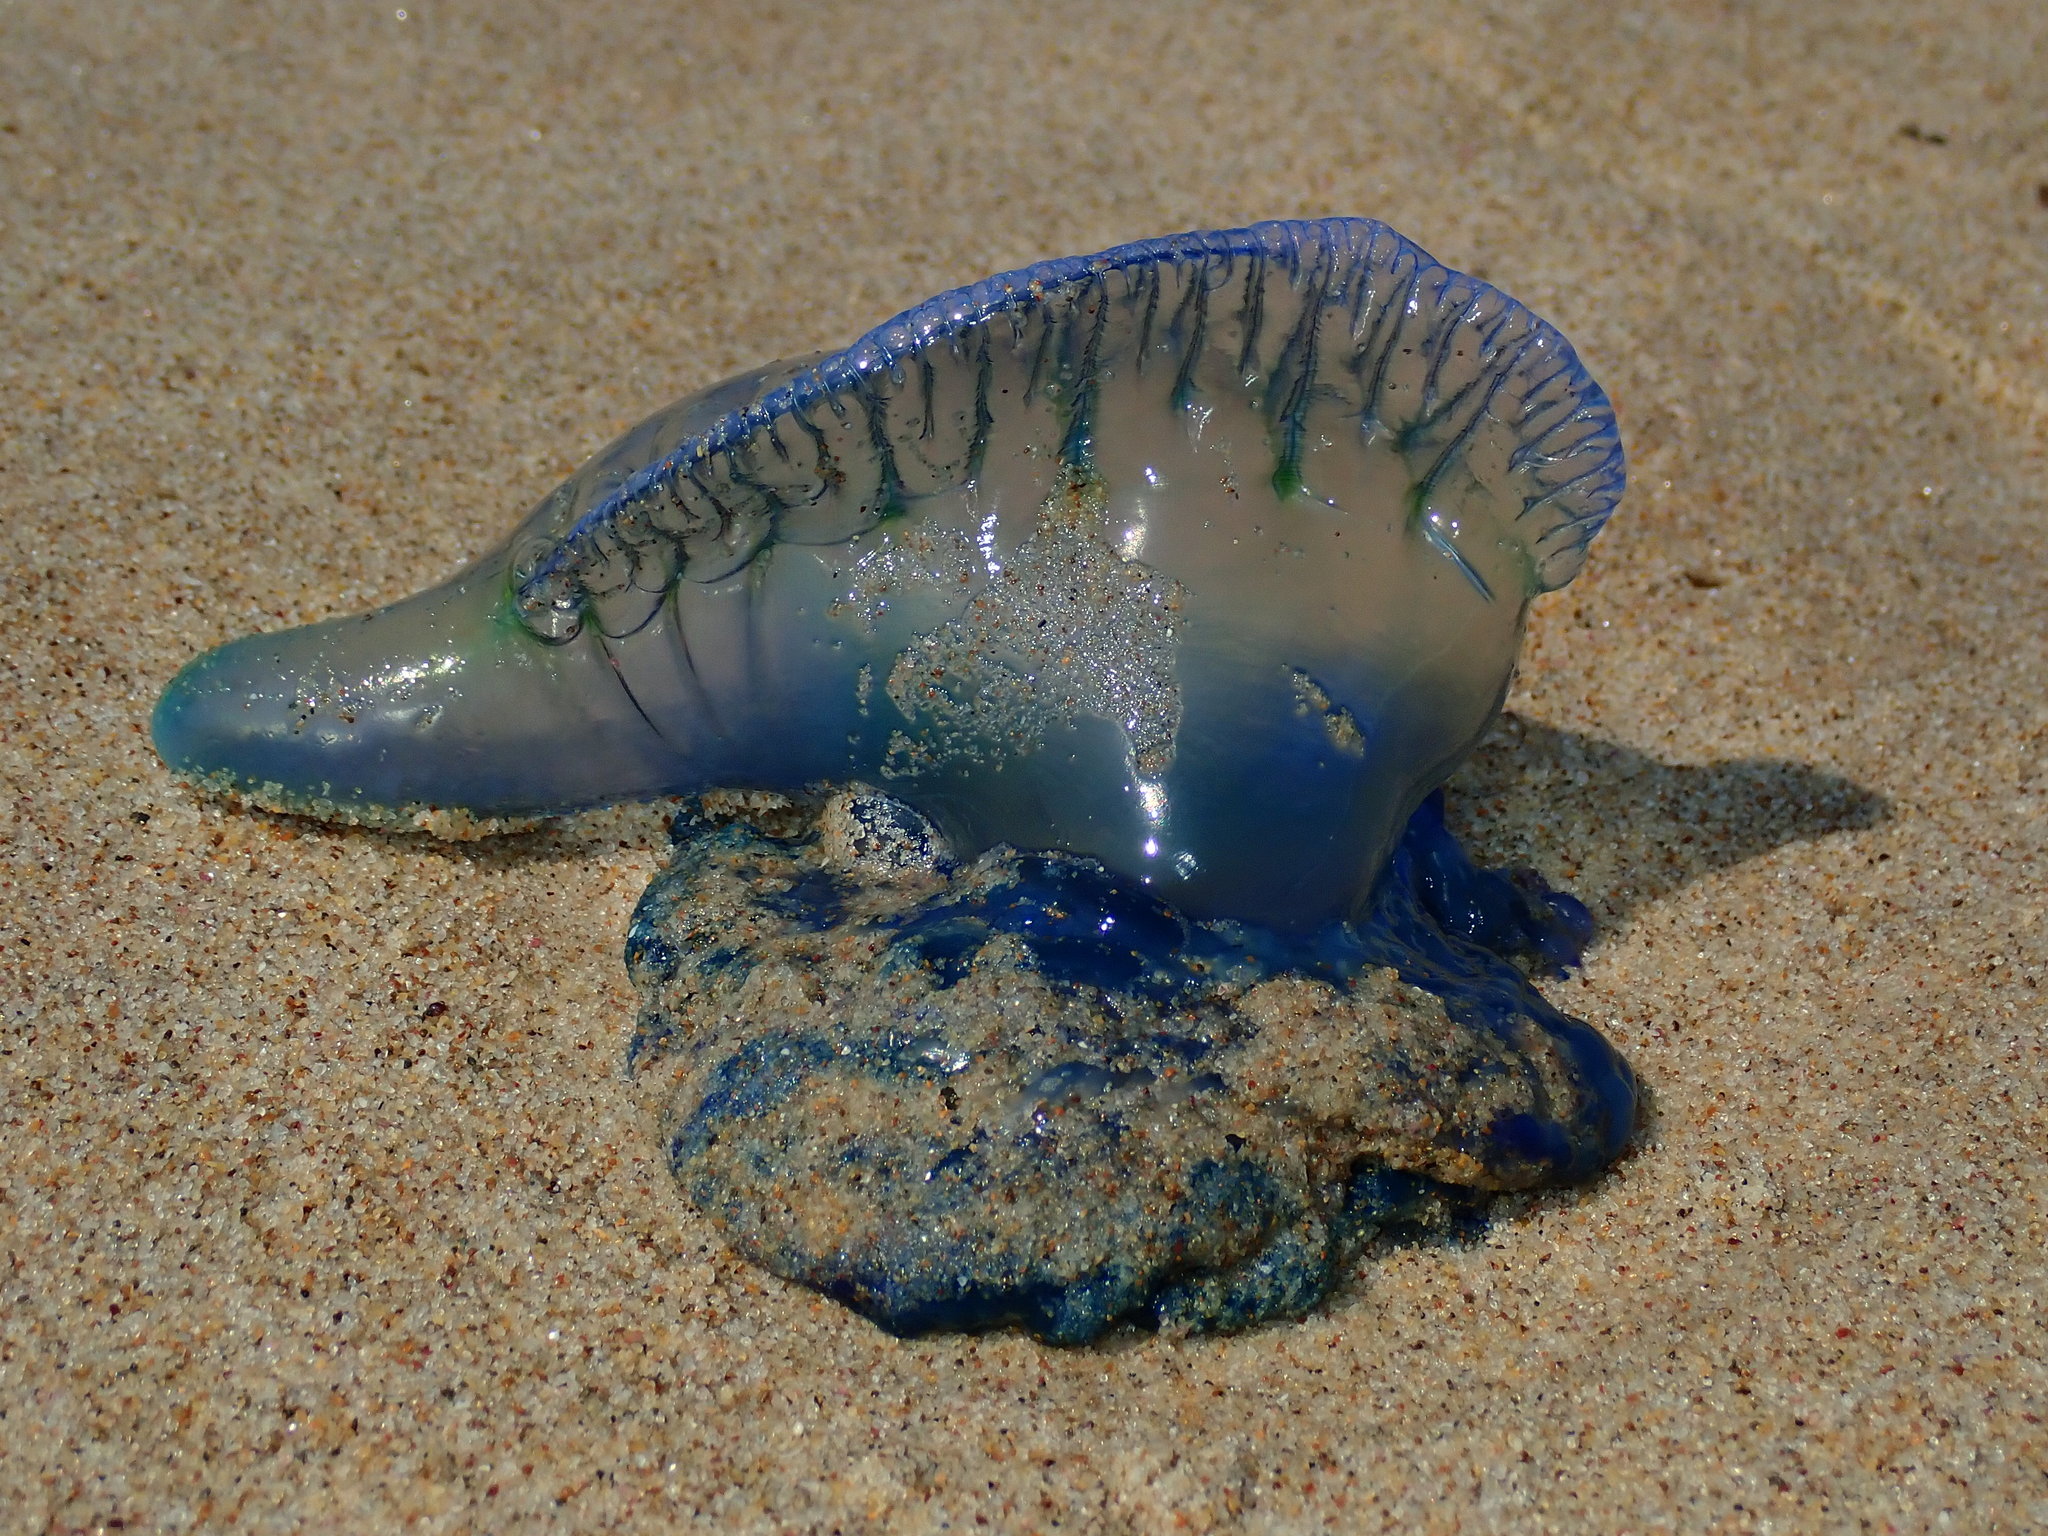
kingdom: Animalia
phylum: Cnidaria
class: Hydrozoa
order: Siphonophorae
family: Physaliidae
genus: Physalia
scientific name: Physalia physalis
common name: Portuguese man-of-war
